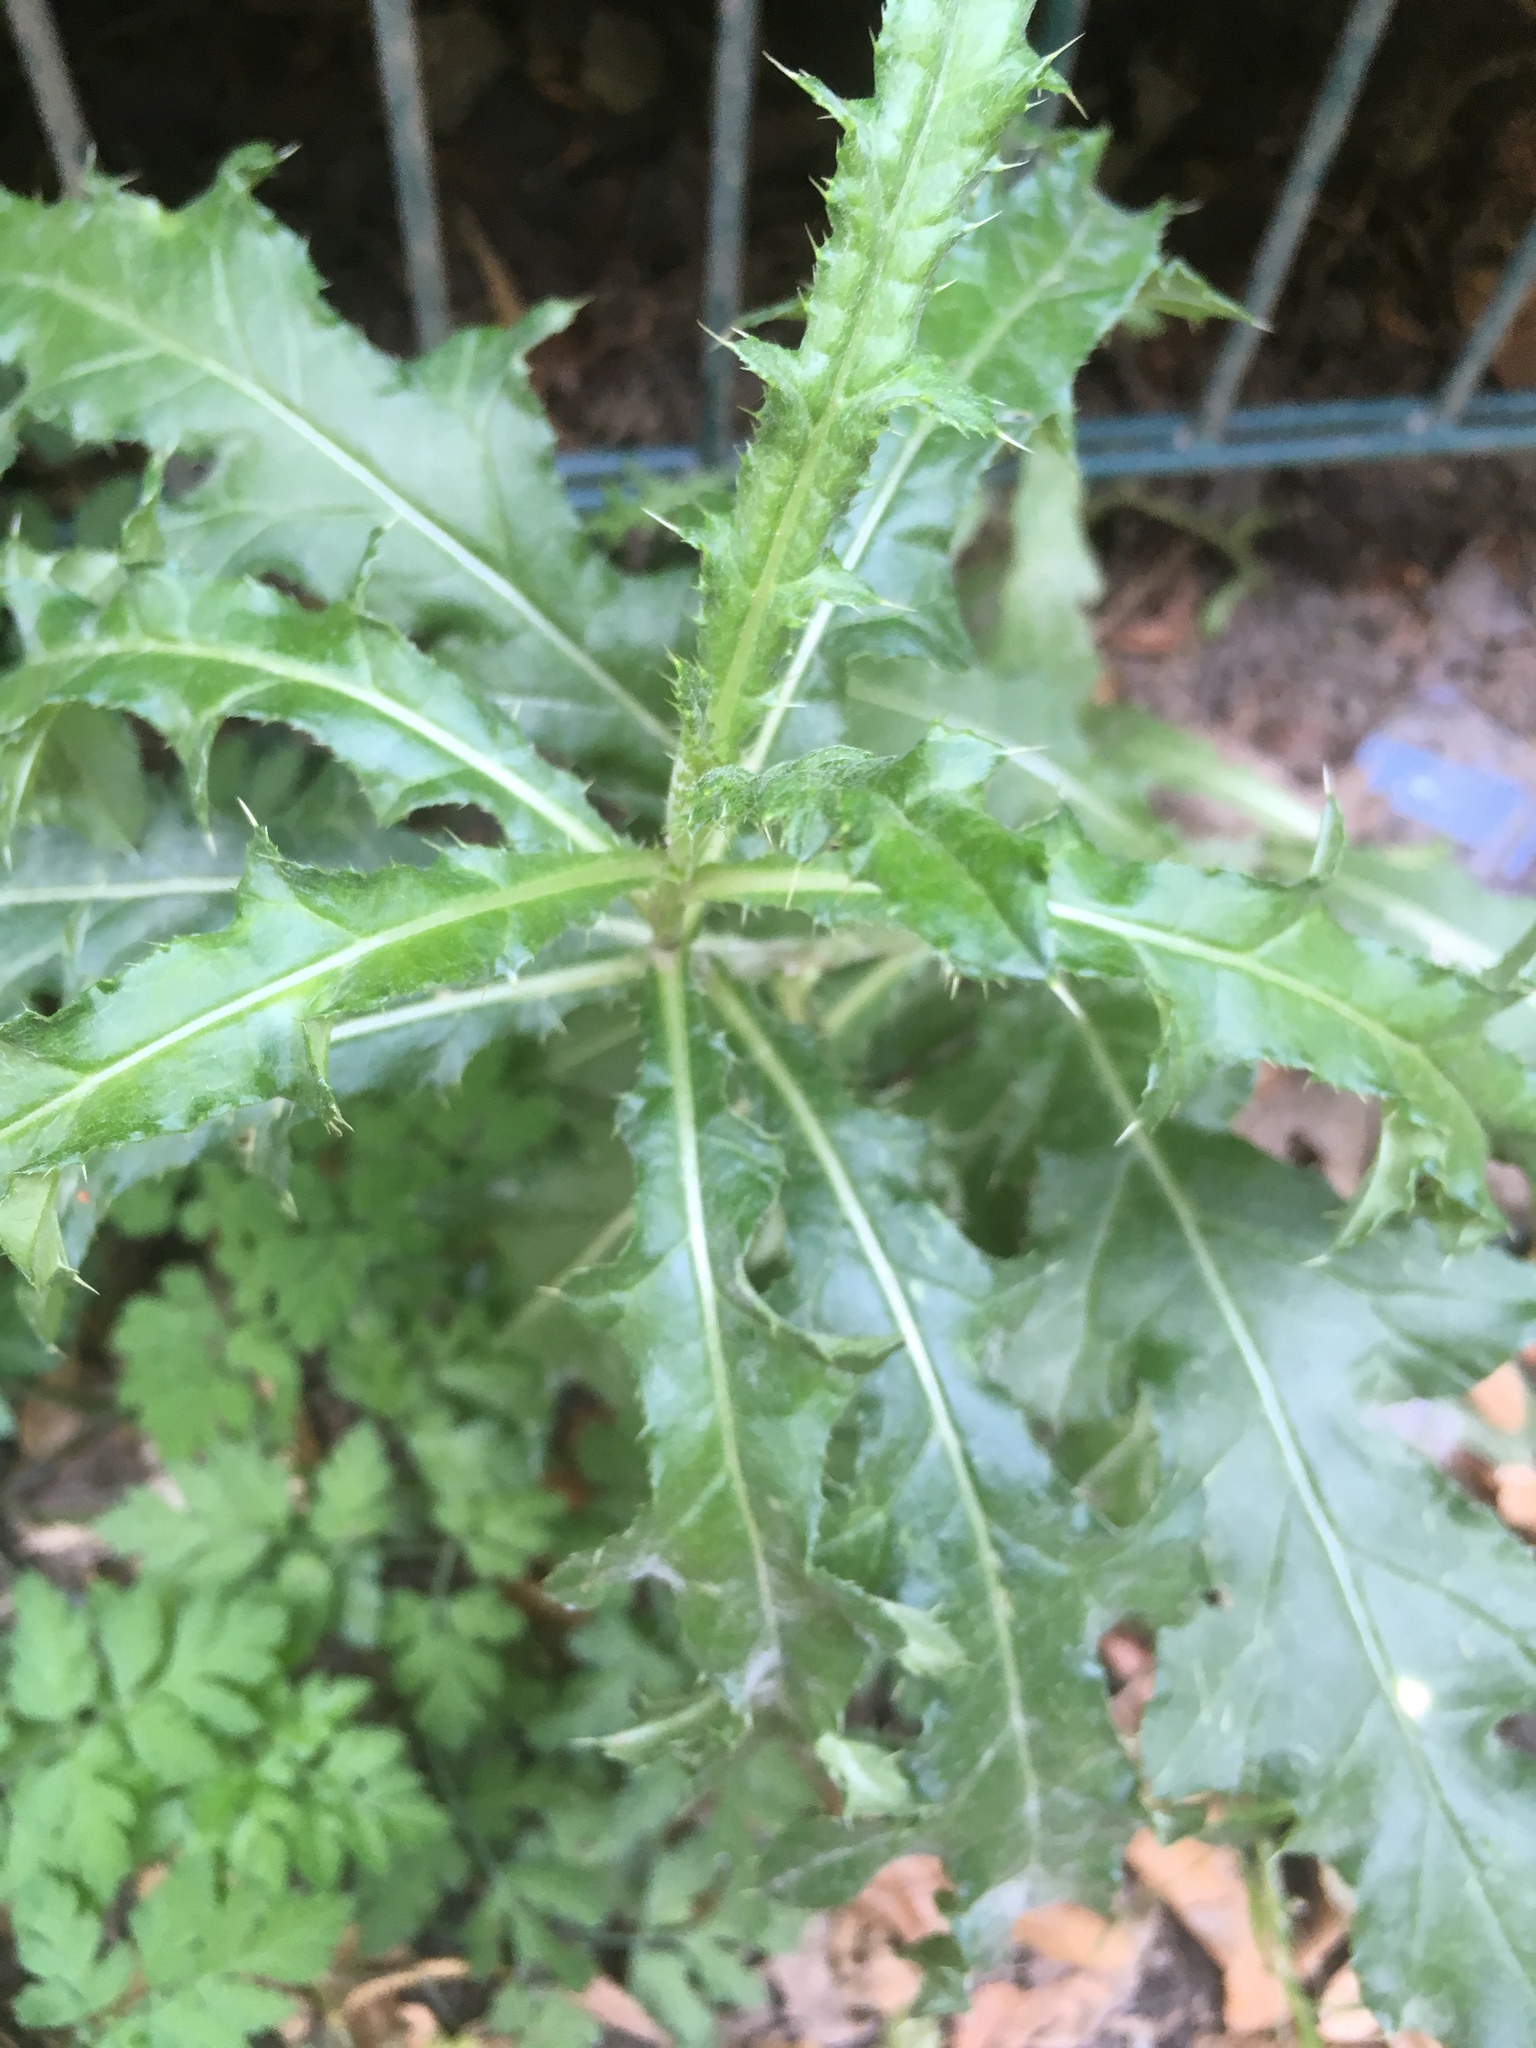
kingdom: Plantae
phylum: Tracheophyta
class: Magnoliopsida
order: Asterales
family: Asteraceae
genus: Cirsium
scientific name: Cirsium arvense
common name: Creeping thistle
